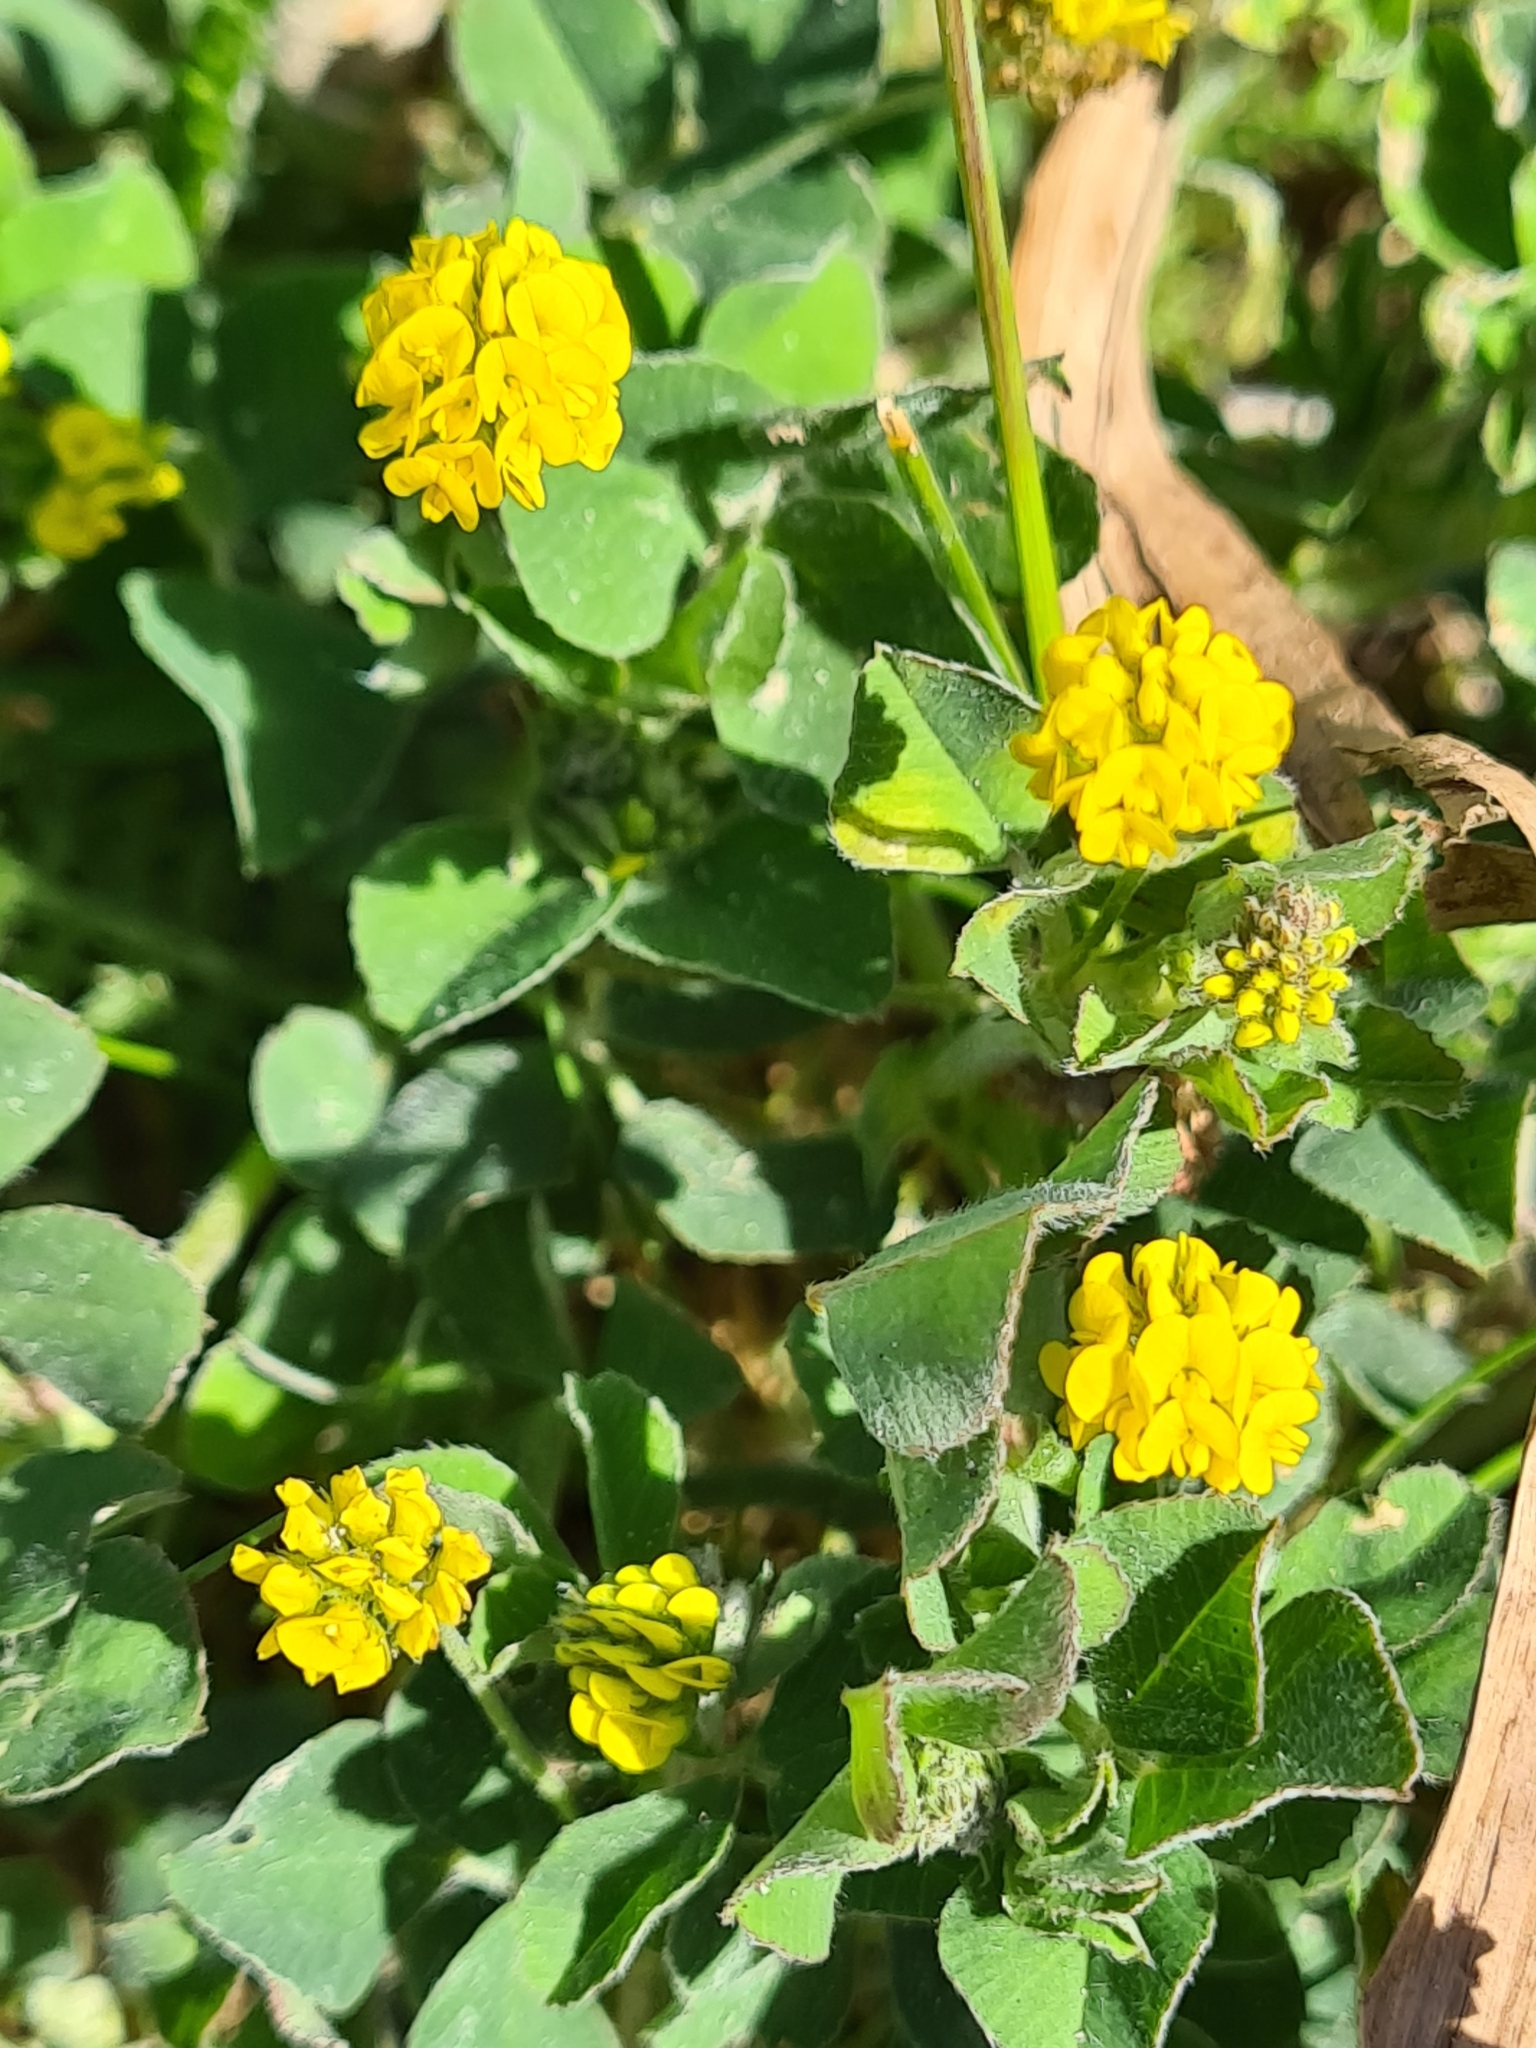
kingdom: Plantae
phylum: Tracheophyta
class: Magnoliopsida
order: Fabales
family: Fabaceae
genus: Medicago
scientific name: Medicago lupulina
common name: Black medick
